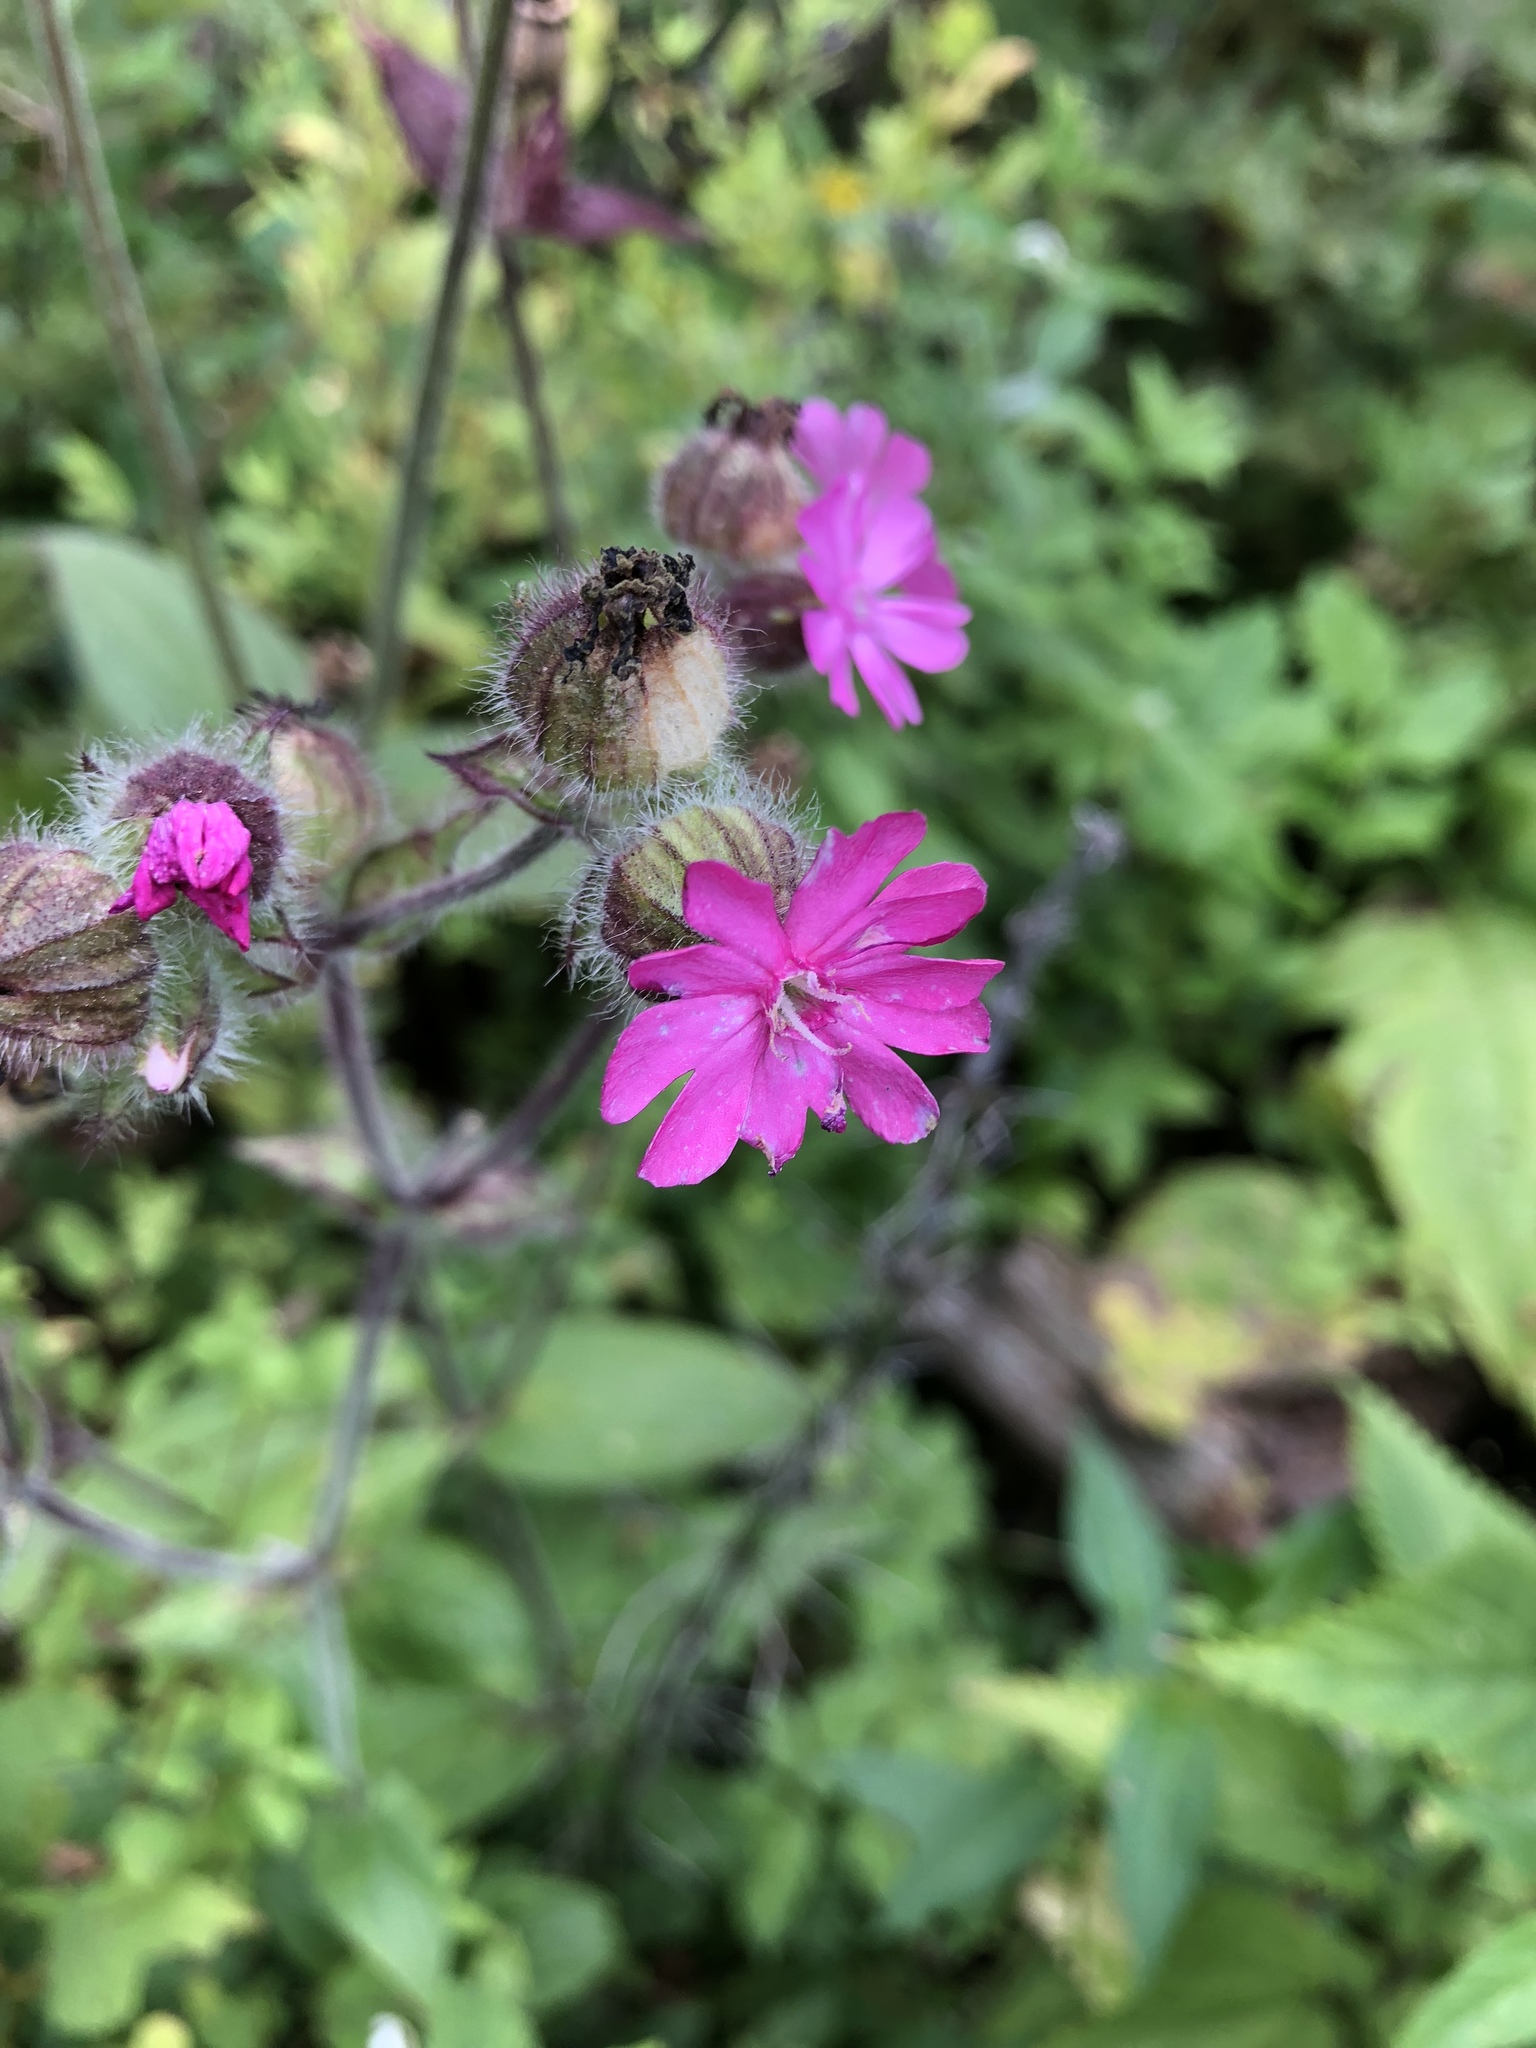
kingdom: Plantae
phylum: Tracheophyta
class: Magnoliopsida
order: Caryophyllales
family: Caryophyllaceae
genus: Silene
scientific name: Silene dioica
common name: Red campion
